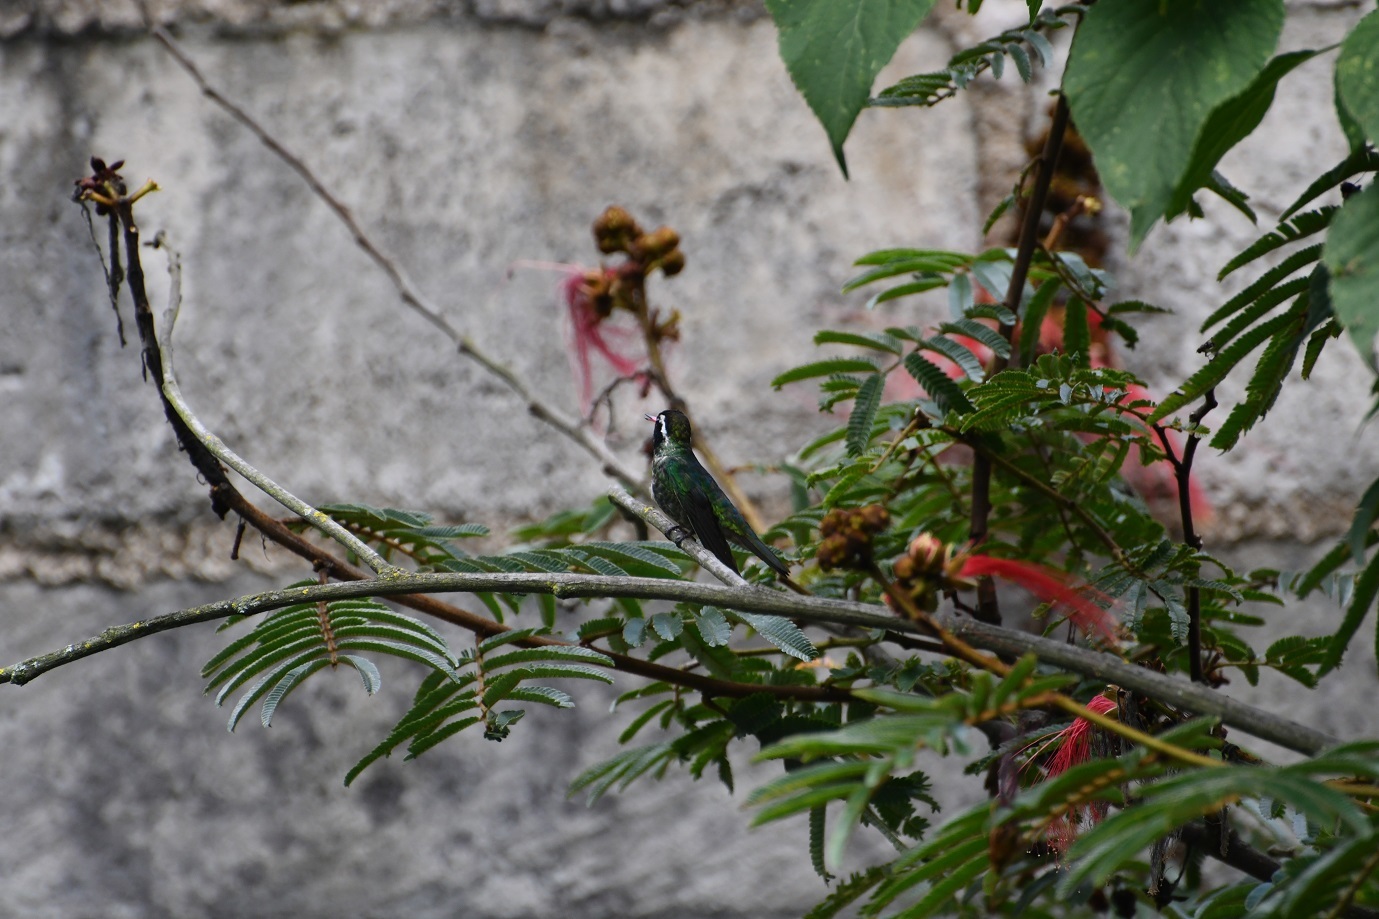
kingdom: Animalia
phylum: Chordata
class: Aves
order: Apodiformes
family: Trochilidae
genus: Basilinna
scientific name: Basilinna leucotis
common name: White-eared hummingbird
